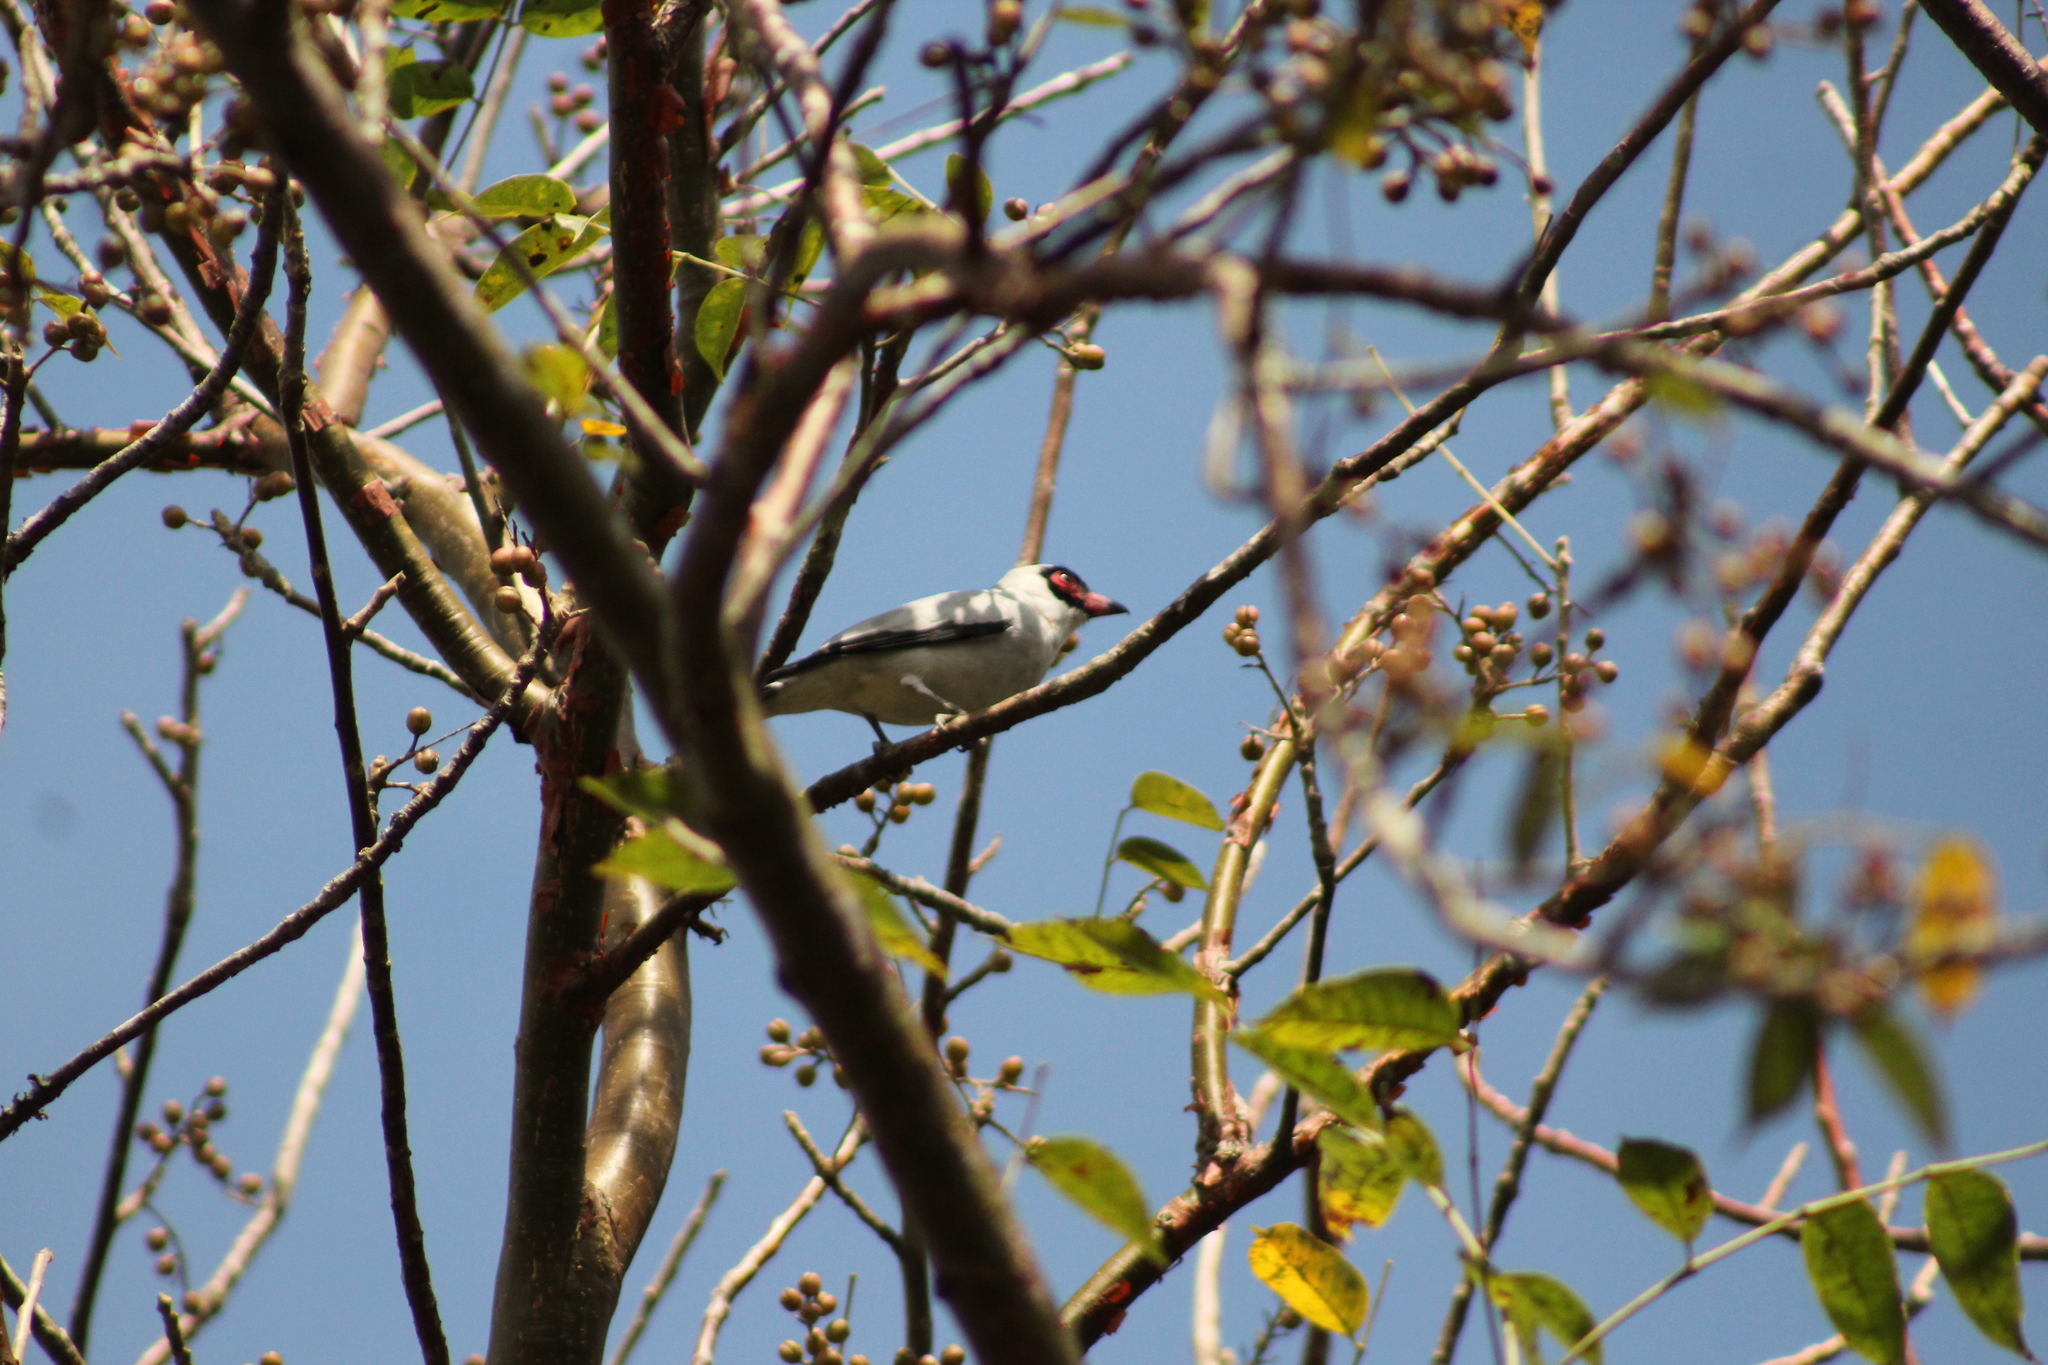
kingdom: Animalia
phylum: Chordata
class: Aves
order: Passeriformes
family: Cotingidae
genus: Tityra
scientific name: Tityra semifasciata
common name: Masked tityra
